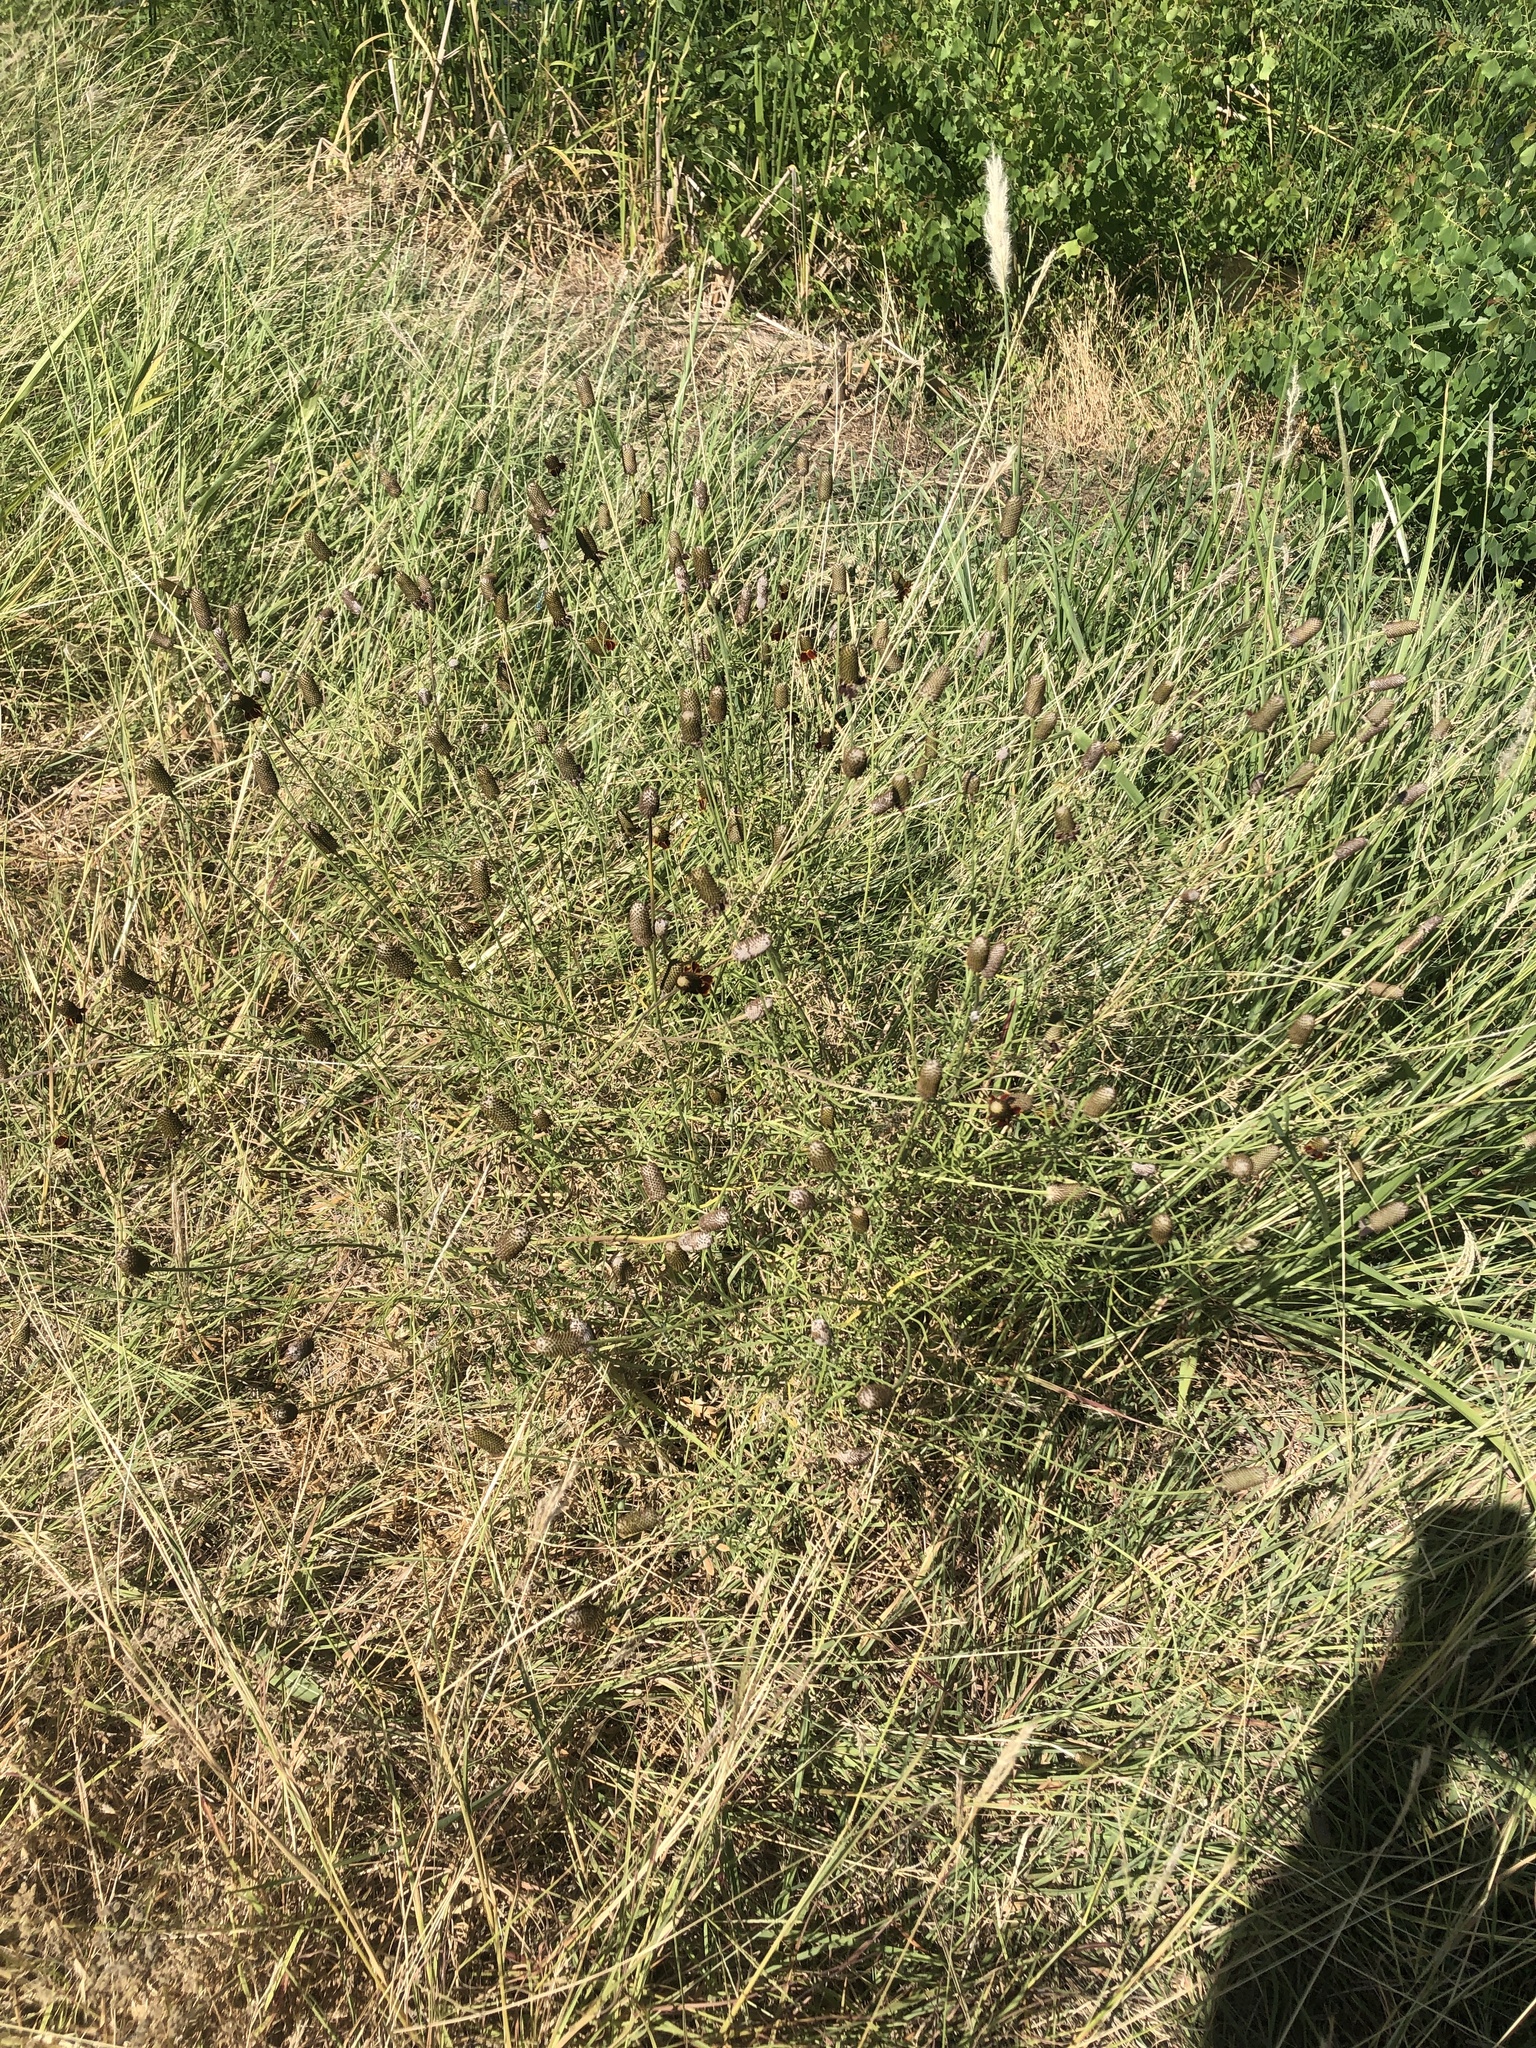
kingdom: Plantae
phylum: Tracheophyta
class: Magnoliopsida
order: Asterales
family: Asteraceae
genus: Ratibida
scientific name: Ratibida columnifera
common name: Prairie coneflower
